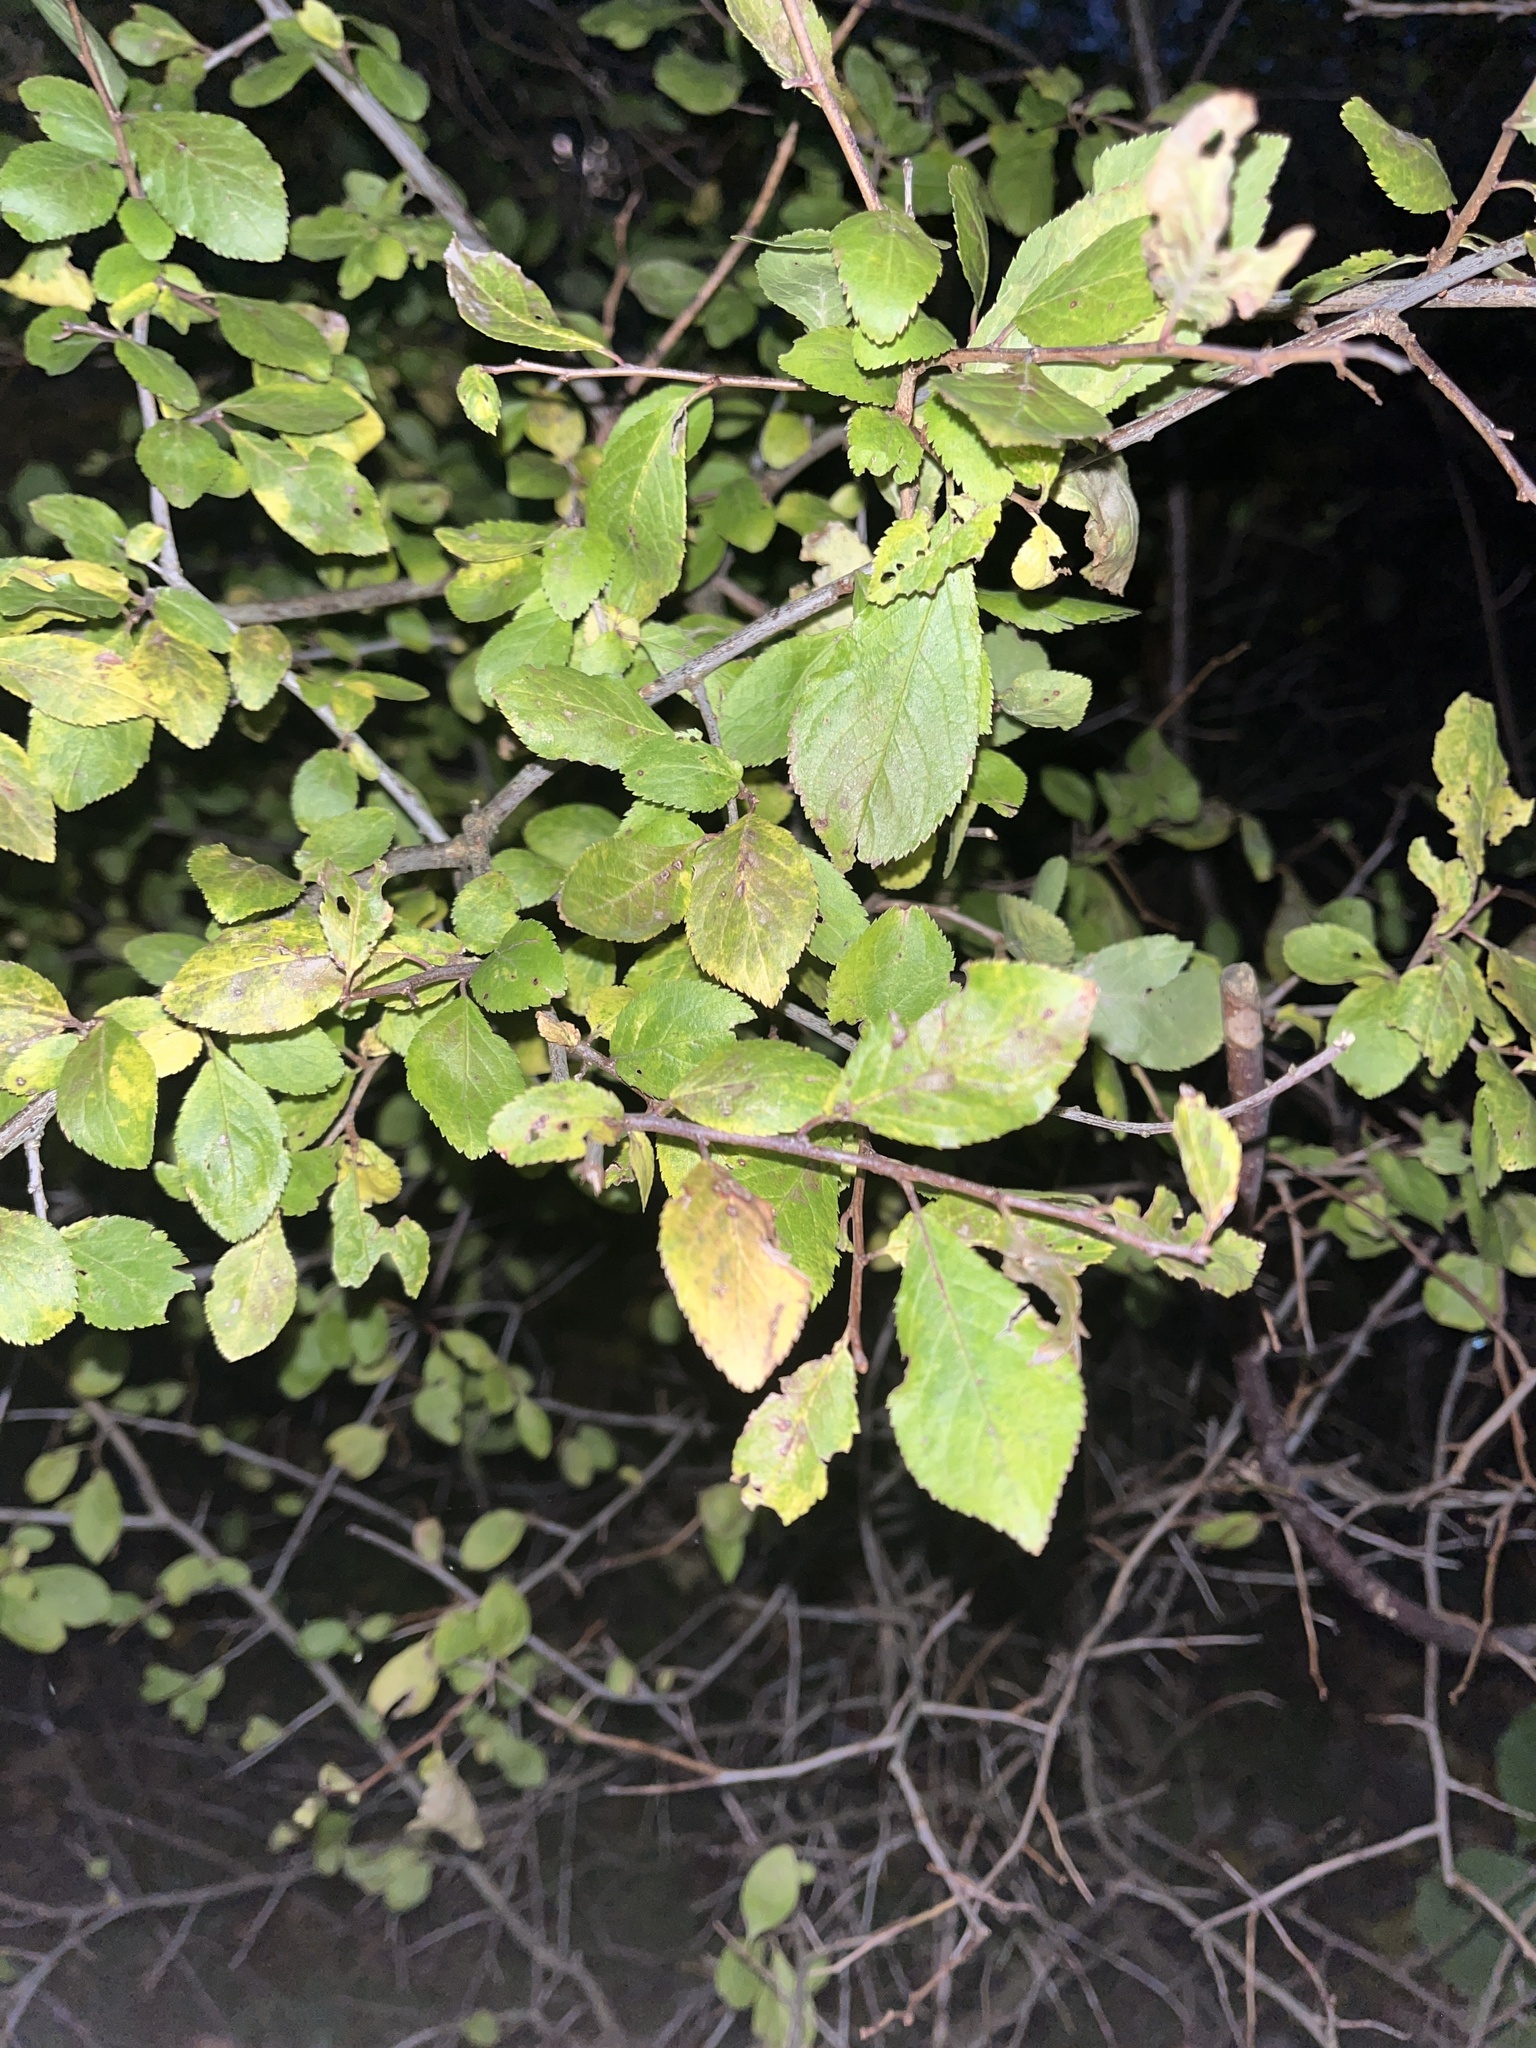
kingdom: Plantae
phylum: Tracheophyta
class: Magnoliopsida
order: Rosales
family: Rosaceae
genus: Prunus
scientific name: Prunus spinosa
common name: Blackthorn
